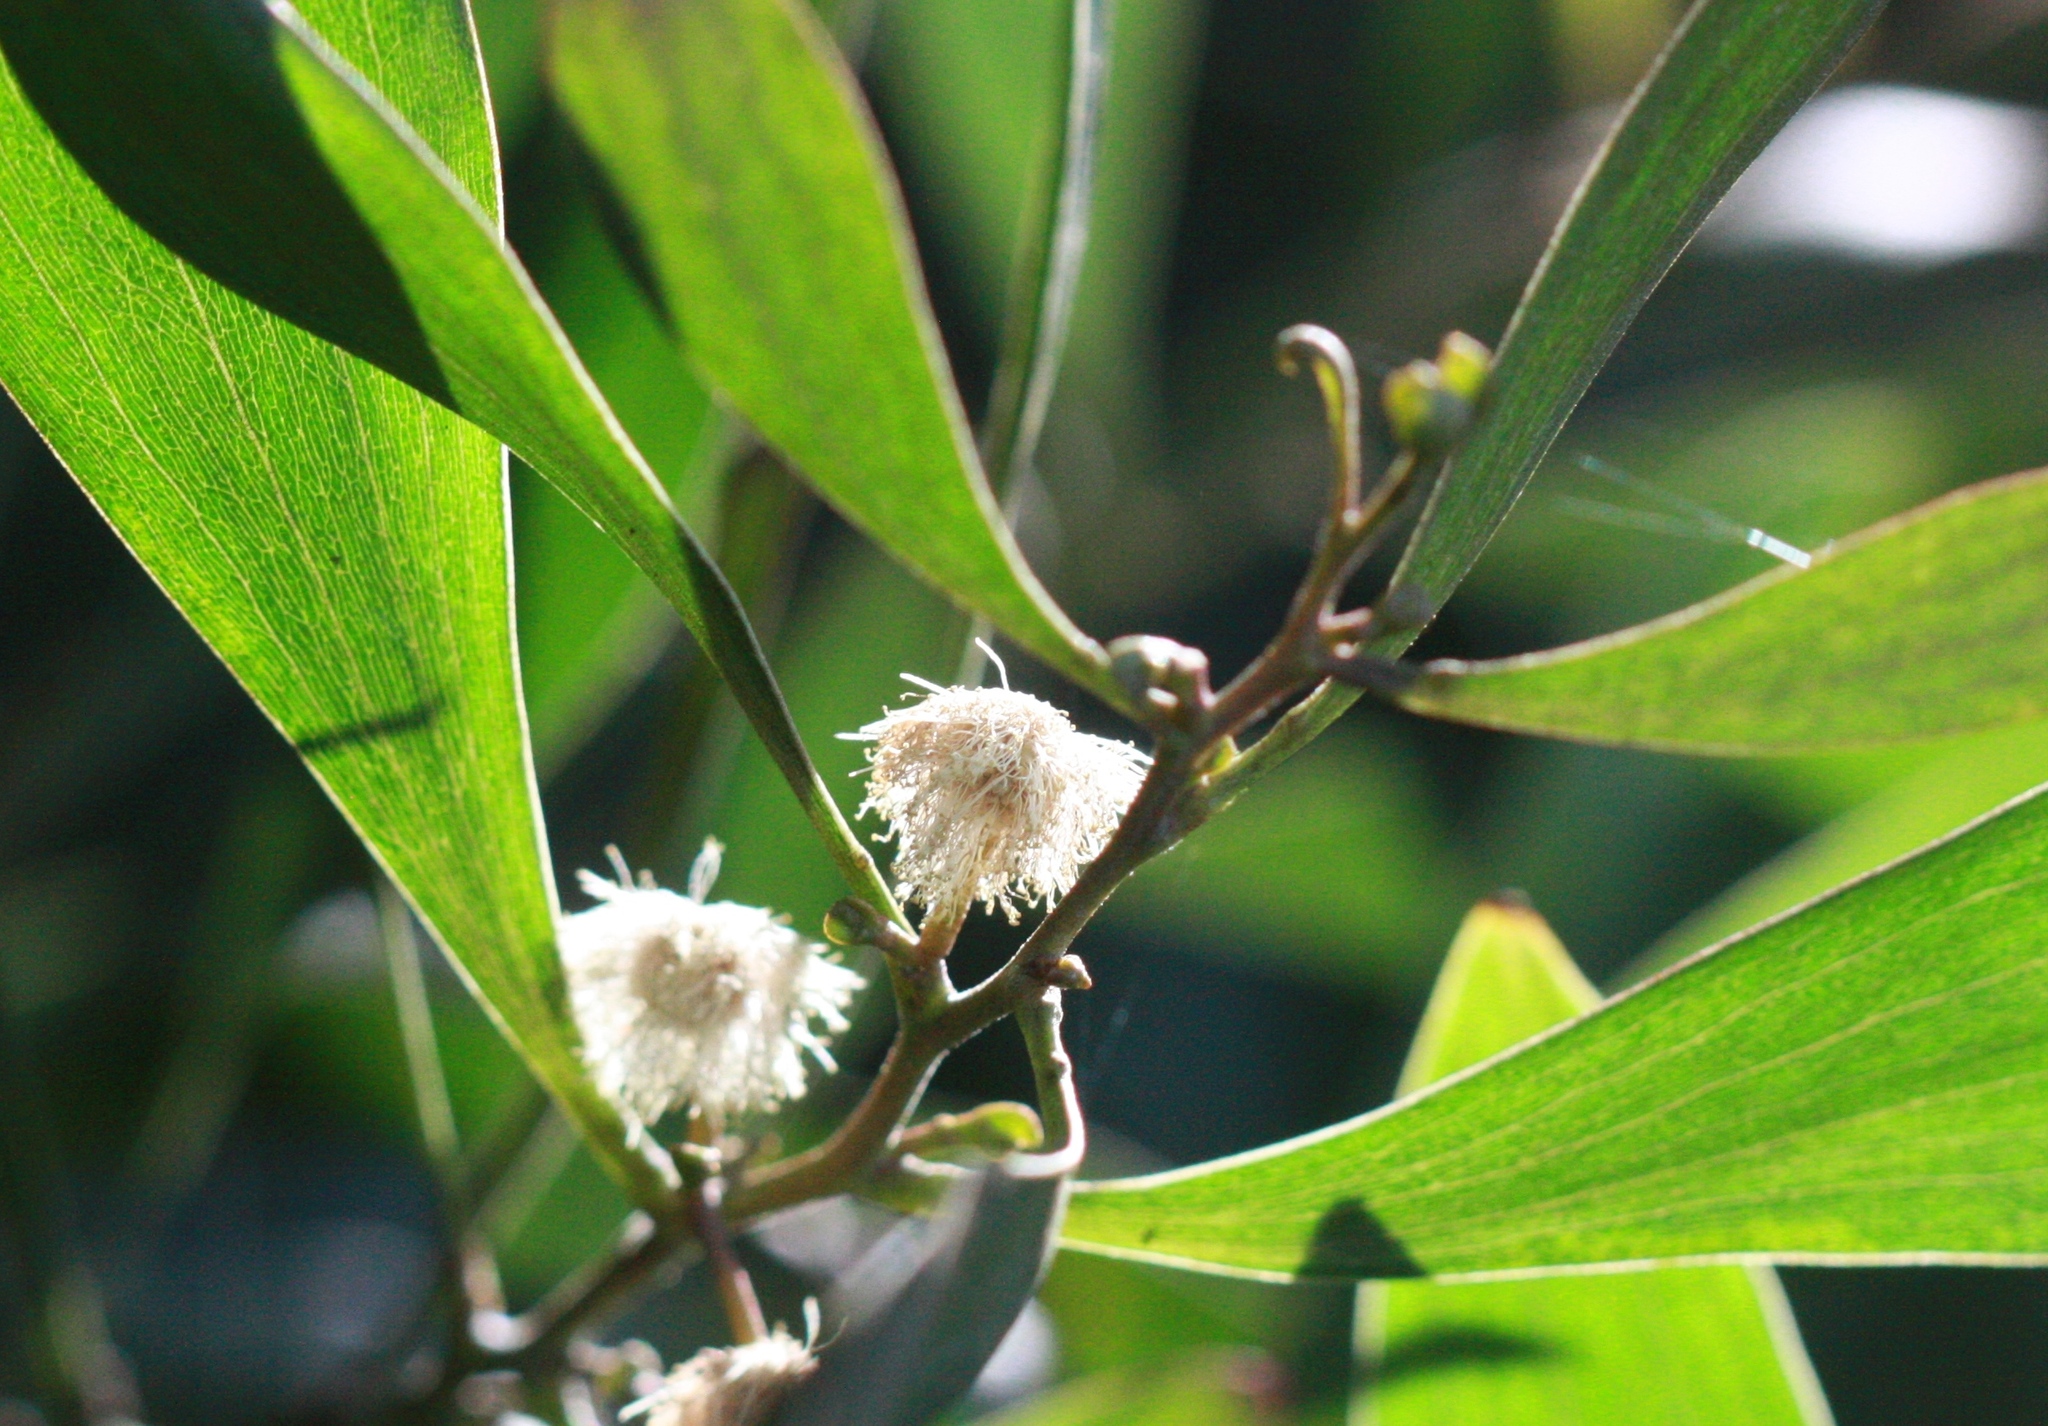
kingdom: Plantae
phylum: Tracheophyta
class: Magnoliopsida
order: Fabales
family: Fabaceae
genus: Acacia
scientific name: Acacia melanoxylon
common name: Blackwood
